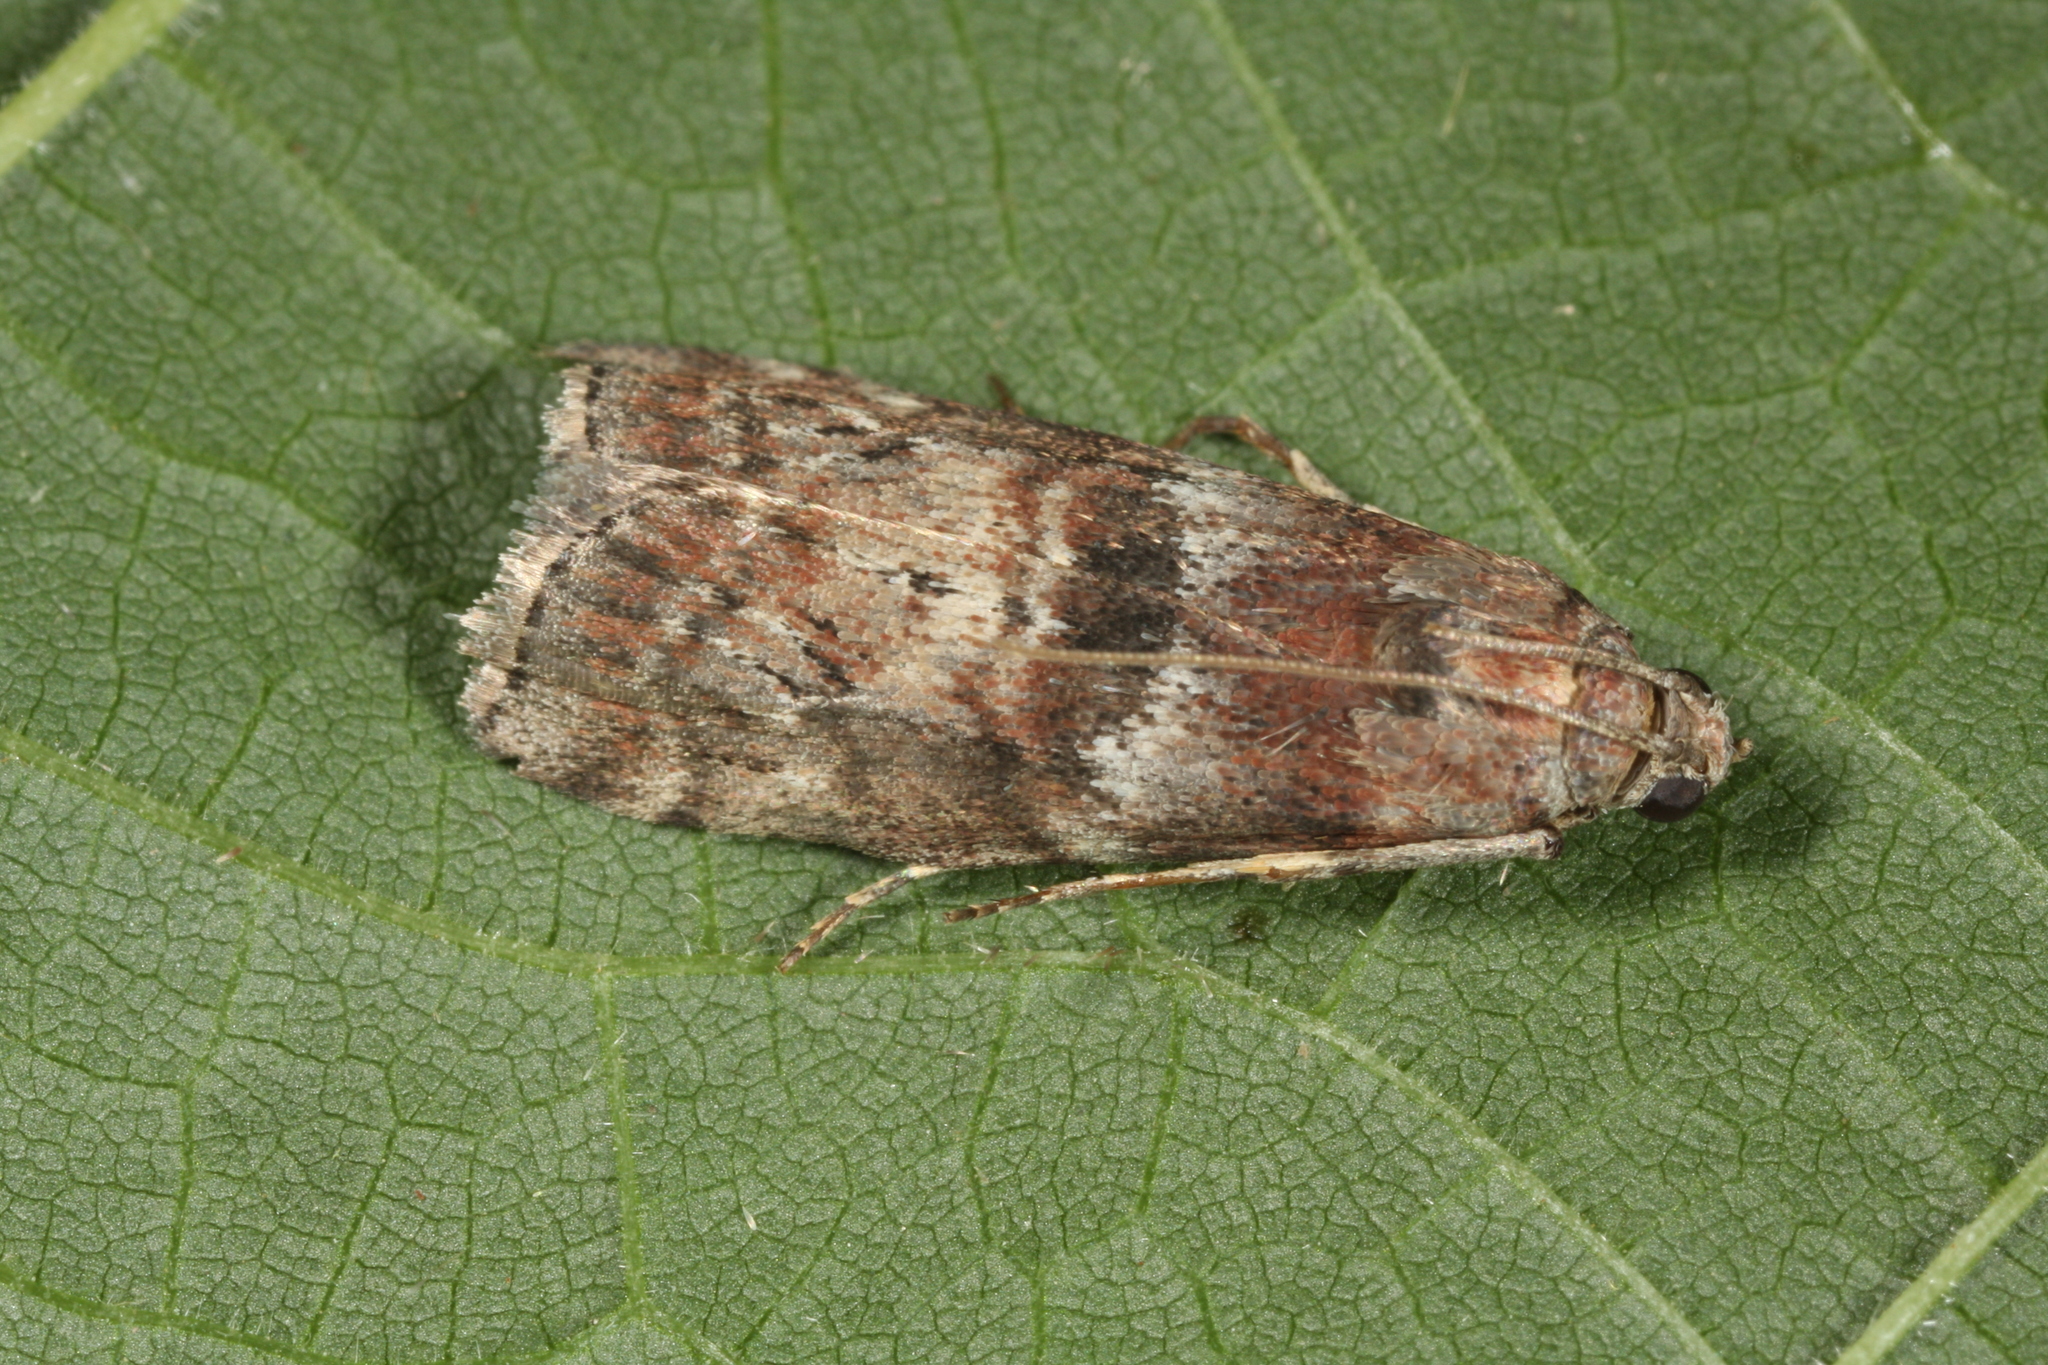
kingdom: Animalia
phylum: Arthropoda
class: Insecta
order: Lepidoptera
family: Pyralidae
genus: Phycita
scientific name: Phycita roborella
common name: Dotted oak knot-horn
